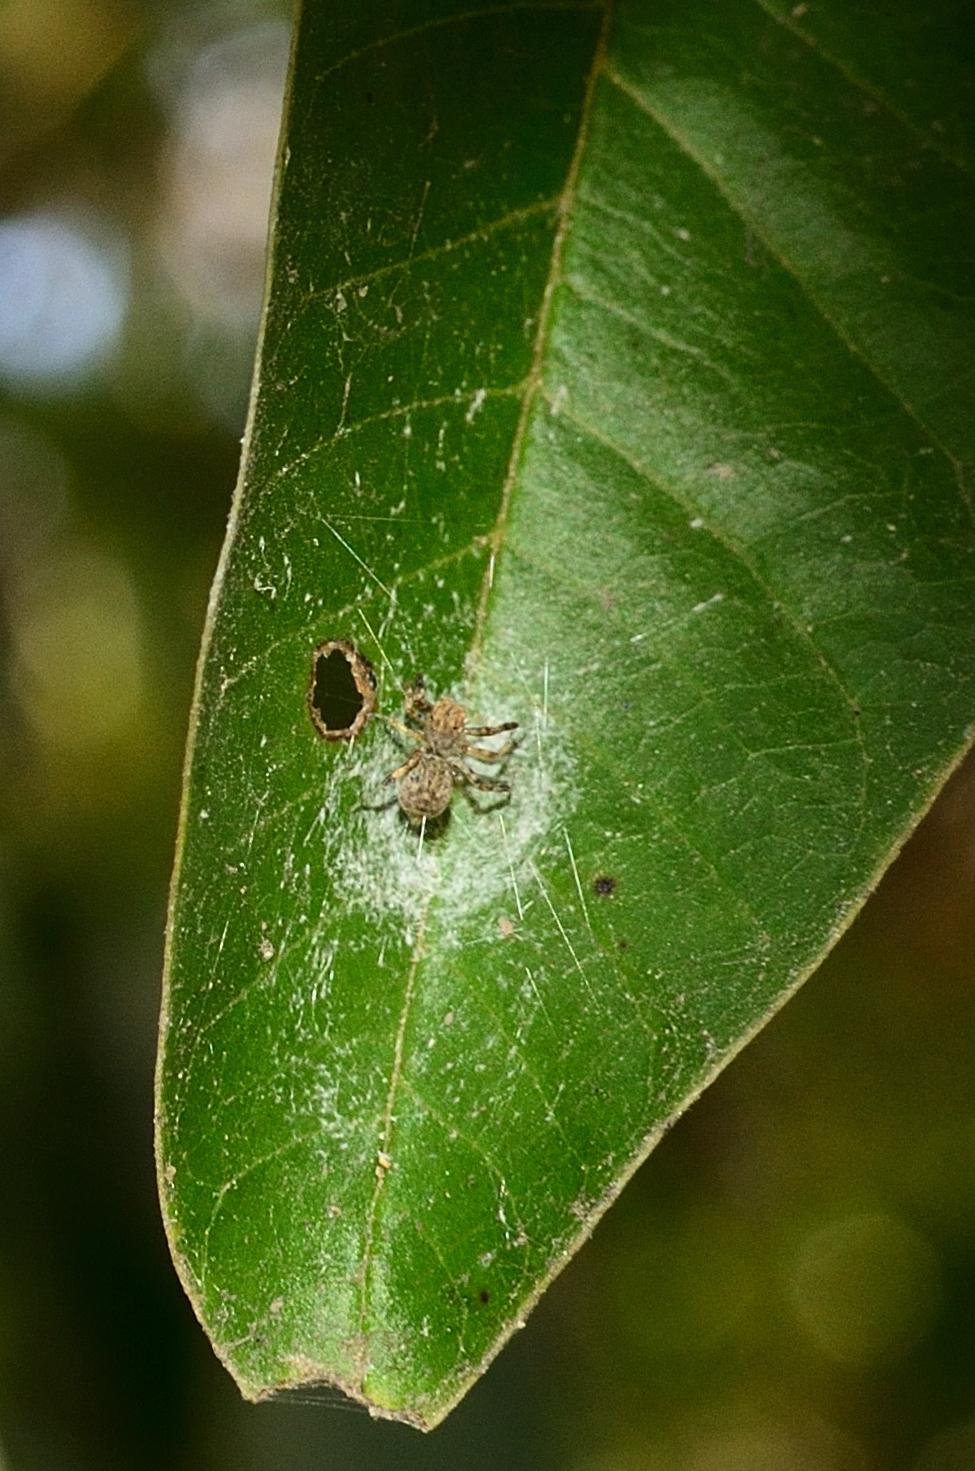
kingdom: Animalia
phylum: Arthropoda
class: Arachnida
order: Araneae
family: Salticidae
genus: Brettus
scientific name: Brettus cingulatus
